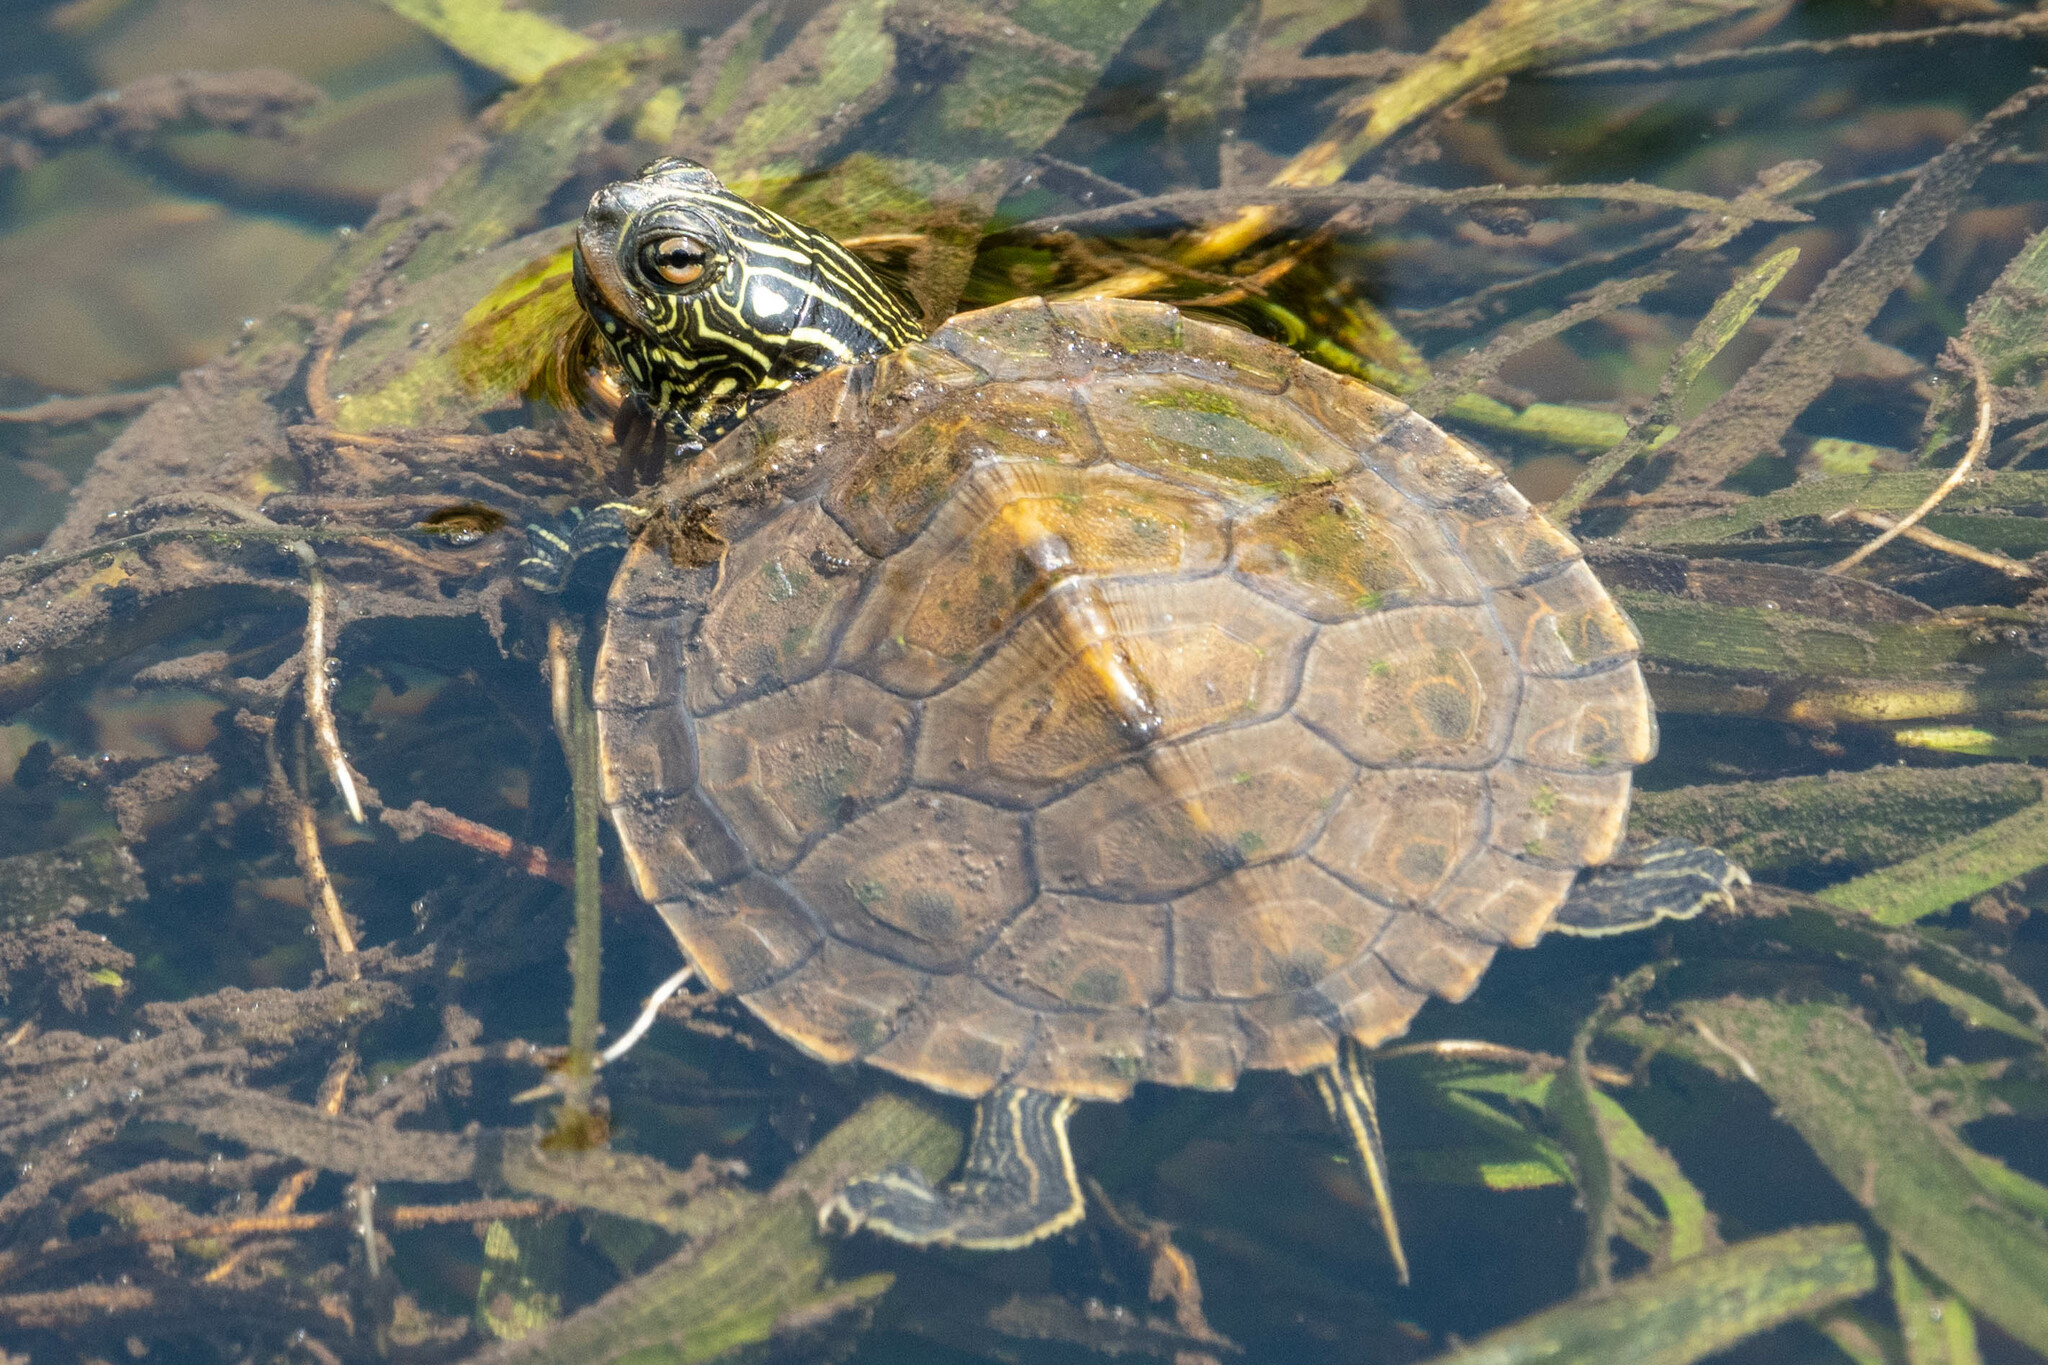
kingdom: Animalia
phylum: Chordata
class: Testudines
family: Emydidae
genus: Graptemys
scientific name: Graptemys geographica
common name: Common map turtle
